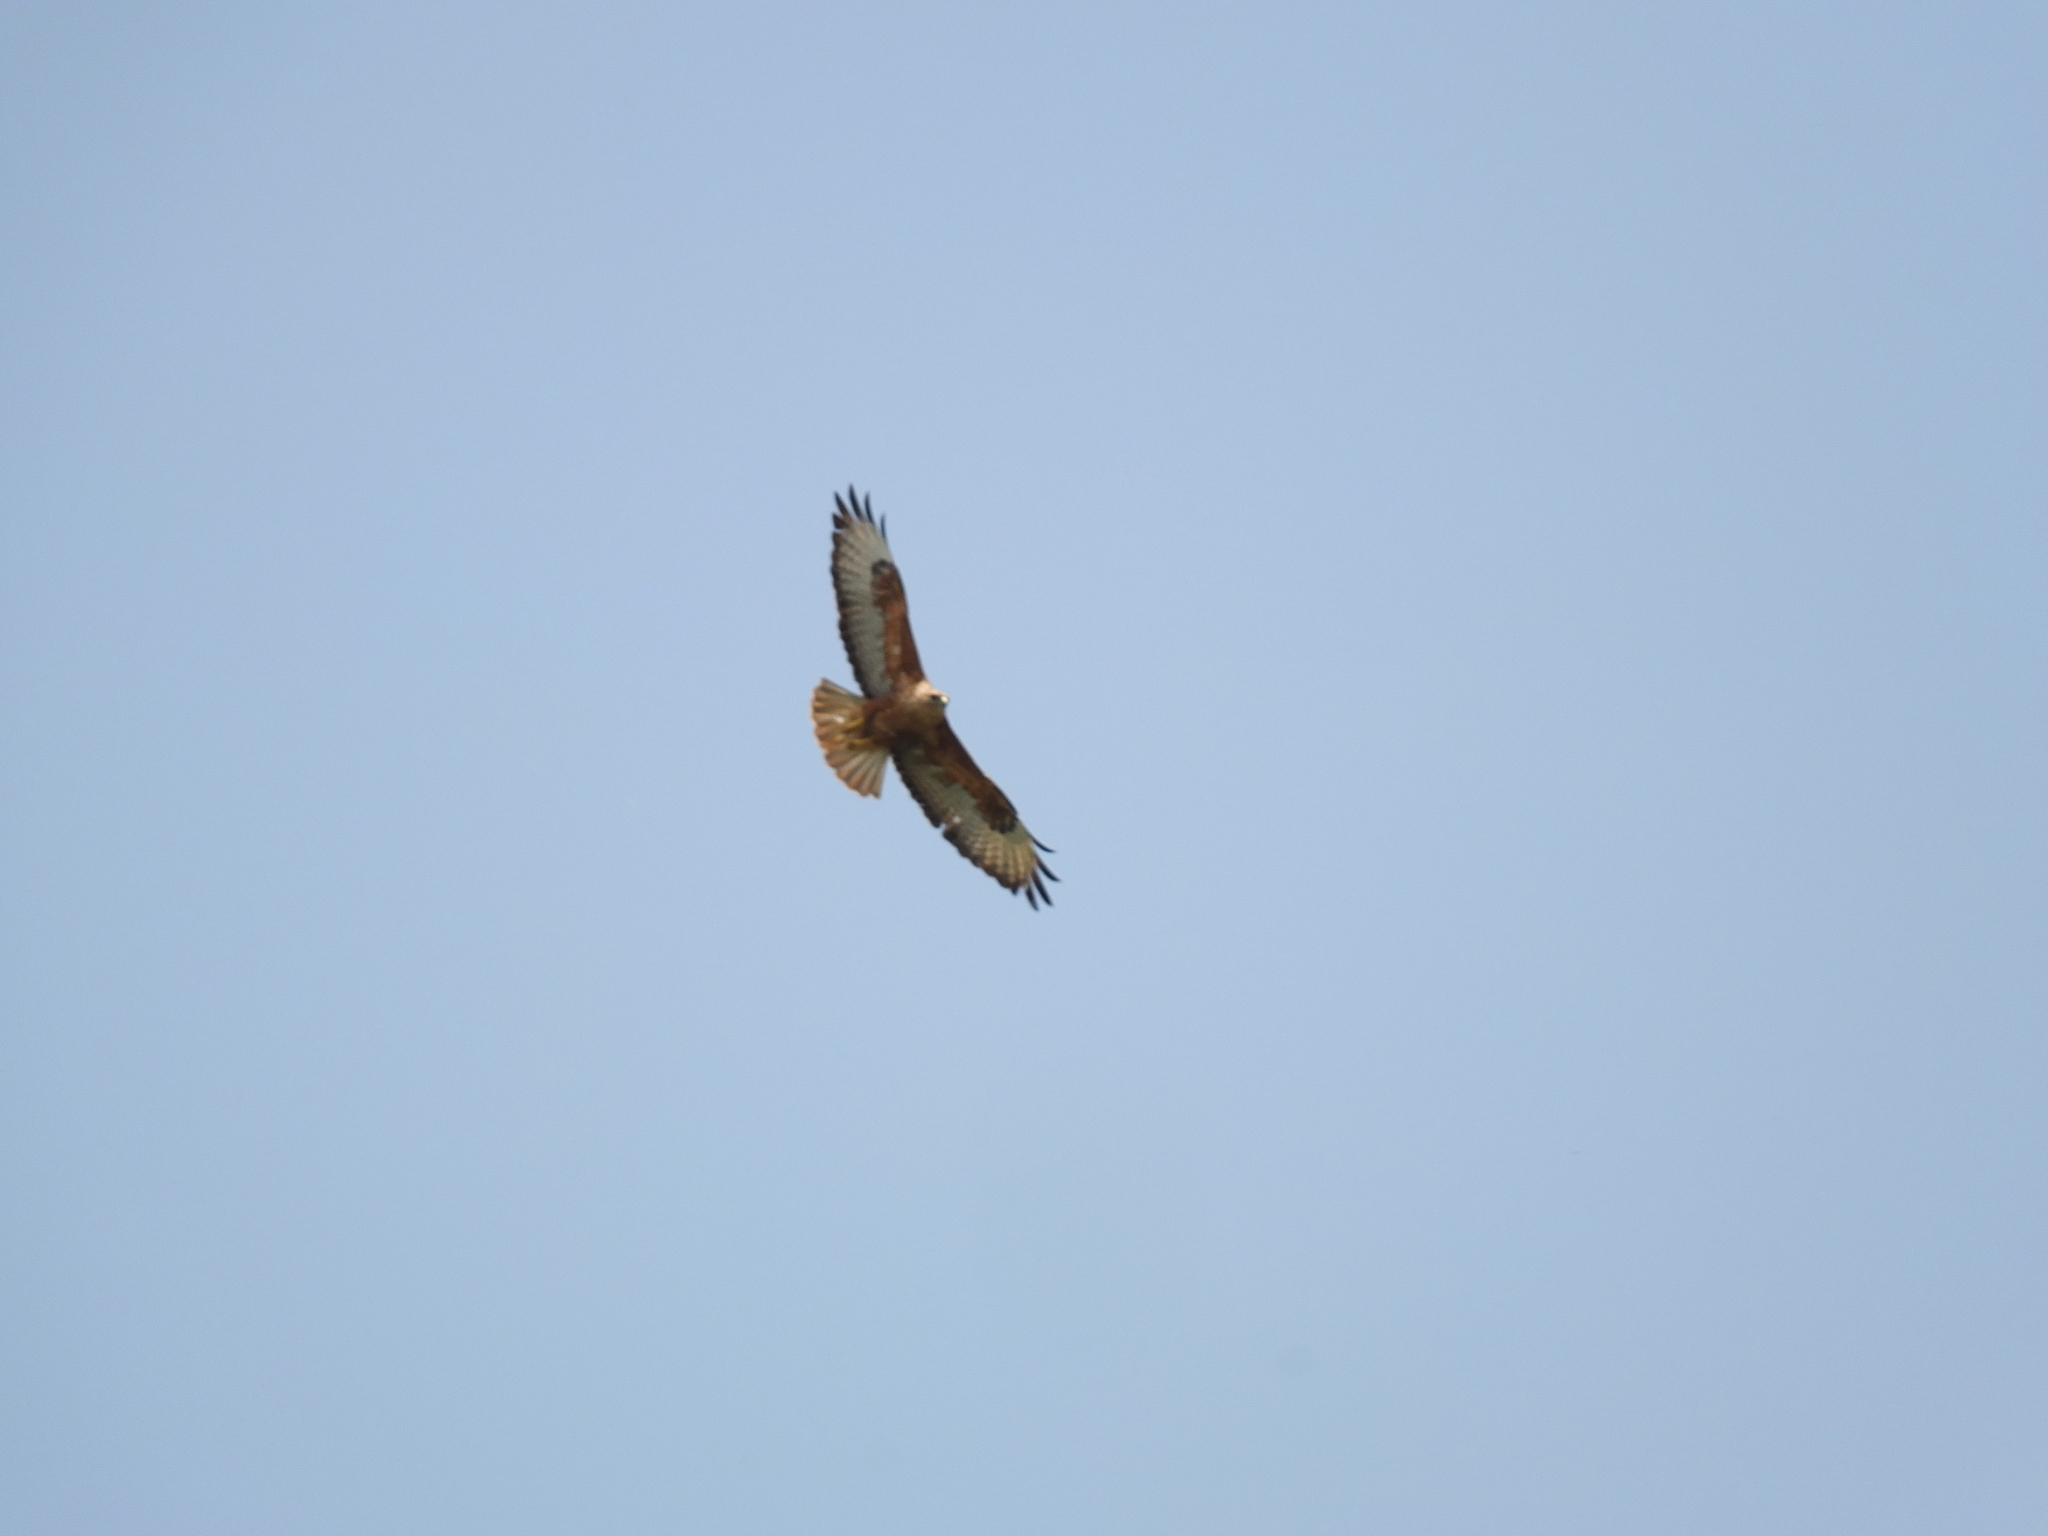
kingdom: Animalia
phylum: Chordata
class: Aves
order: Accipitriformes
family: Accipitridae
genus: Buteo
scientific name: Buteo rufinus
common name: Long-legged buzzard
